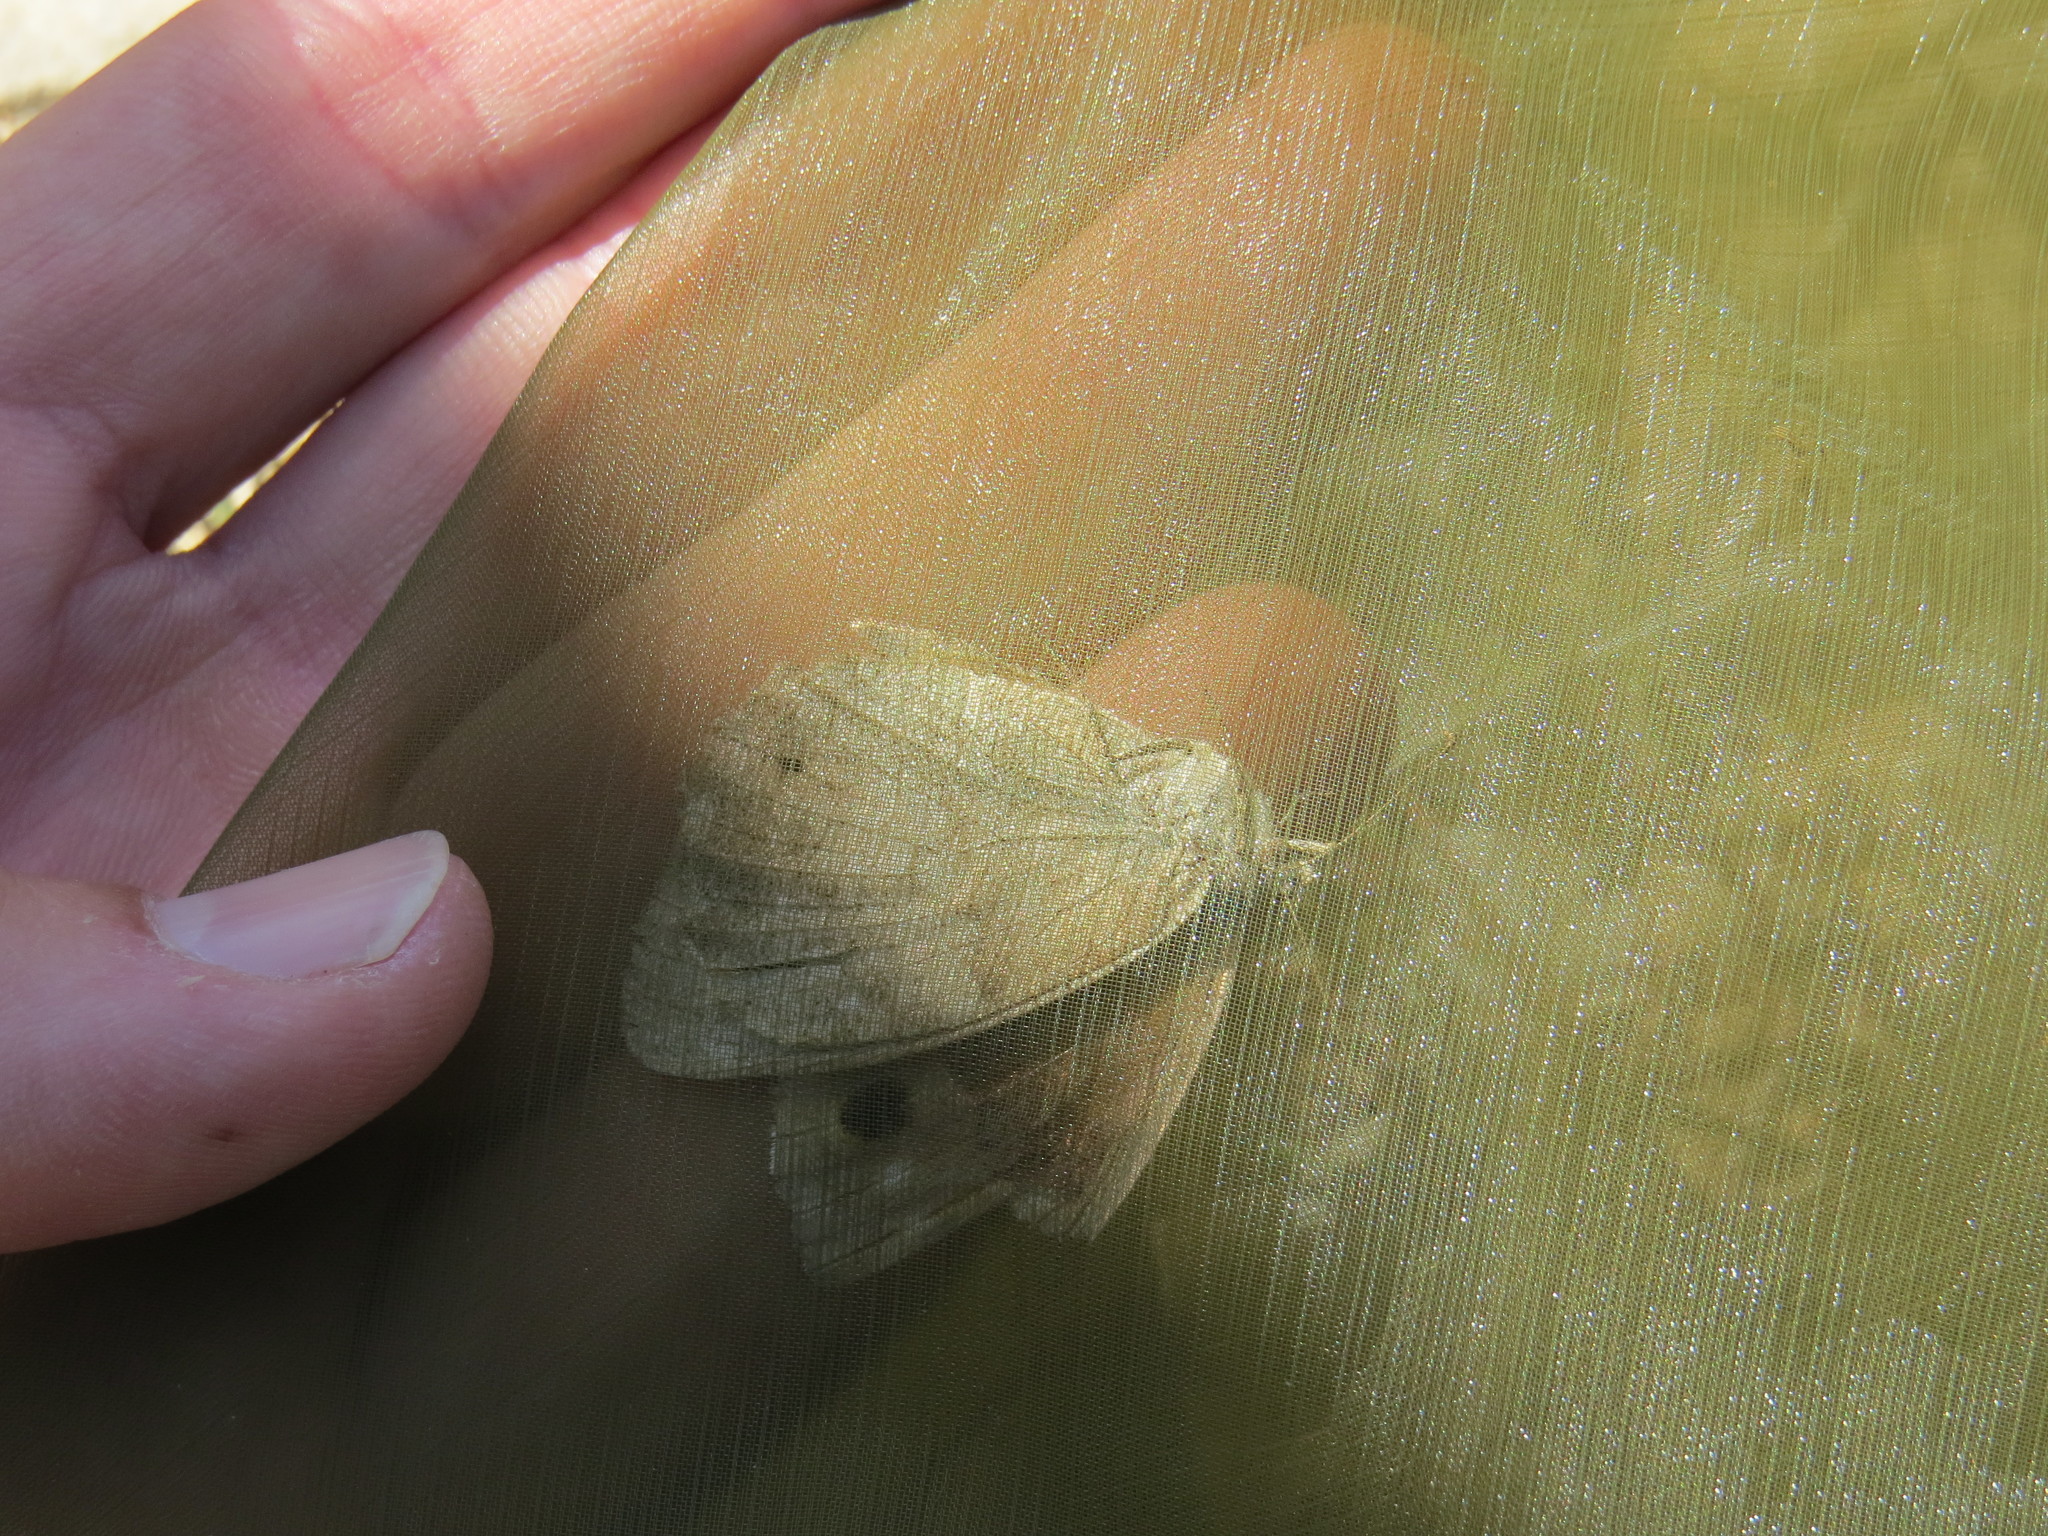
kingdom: Animalia
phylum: Arthropoda
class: Insecta
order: Lepidoptera
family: Nymphalidae
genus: Hipparchia
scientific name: Hipparchia statilinus
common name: Tree grayling
